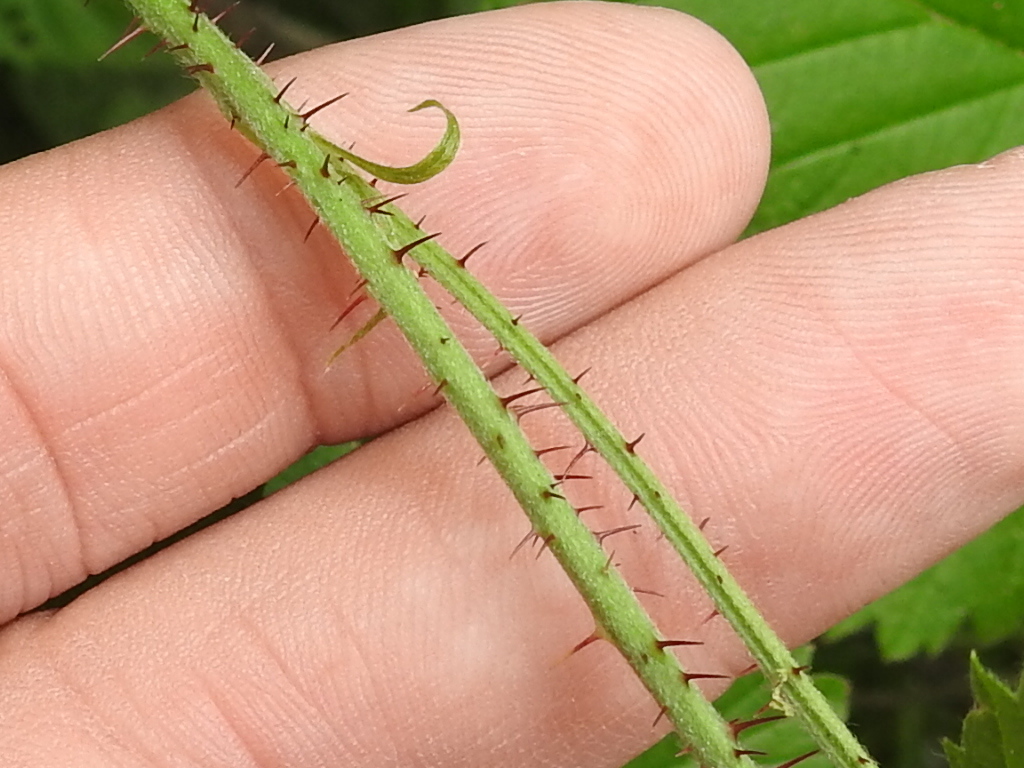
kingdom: Plantae
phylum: Tracheophyta
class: Magnoliopsida
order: Rosales
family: Rosaceae
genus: Rubus
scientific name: Rubus ursinus
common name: Pacific blackberry
